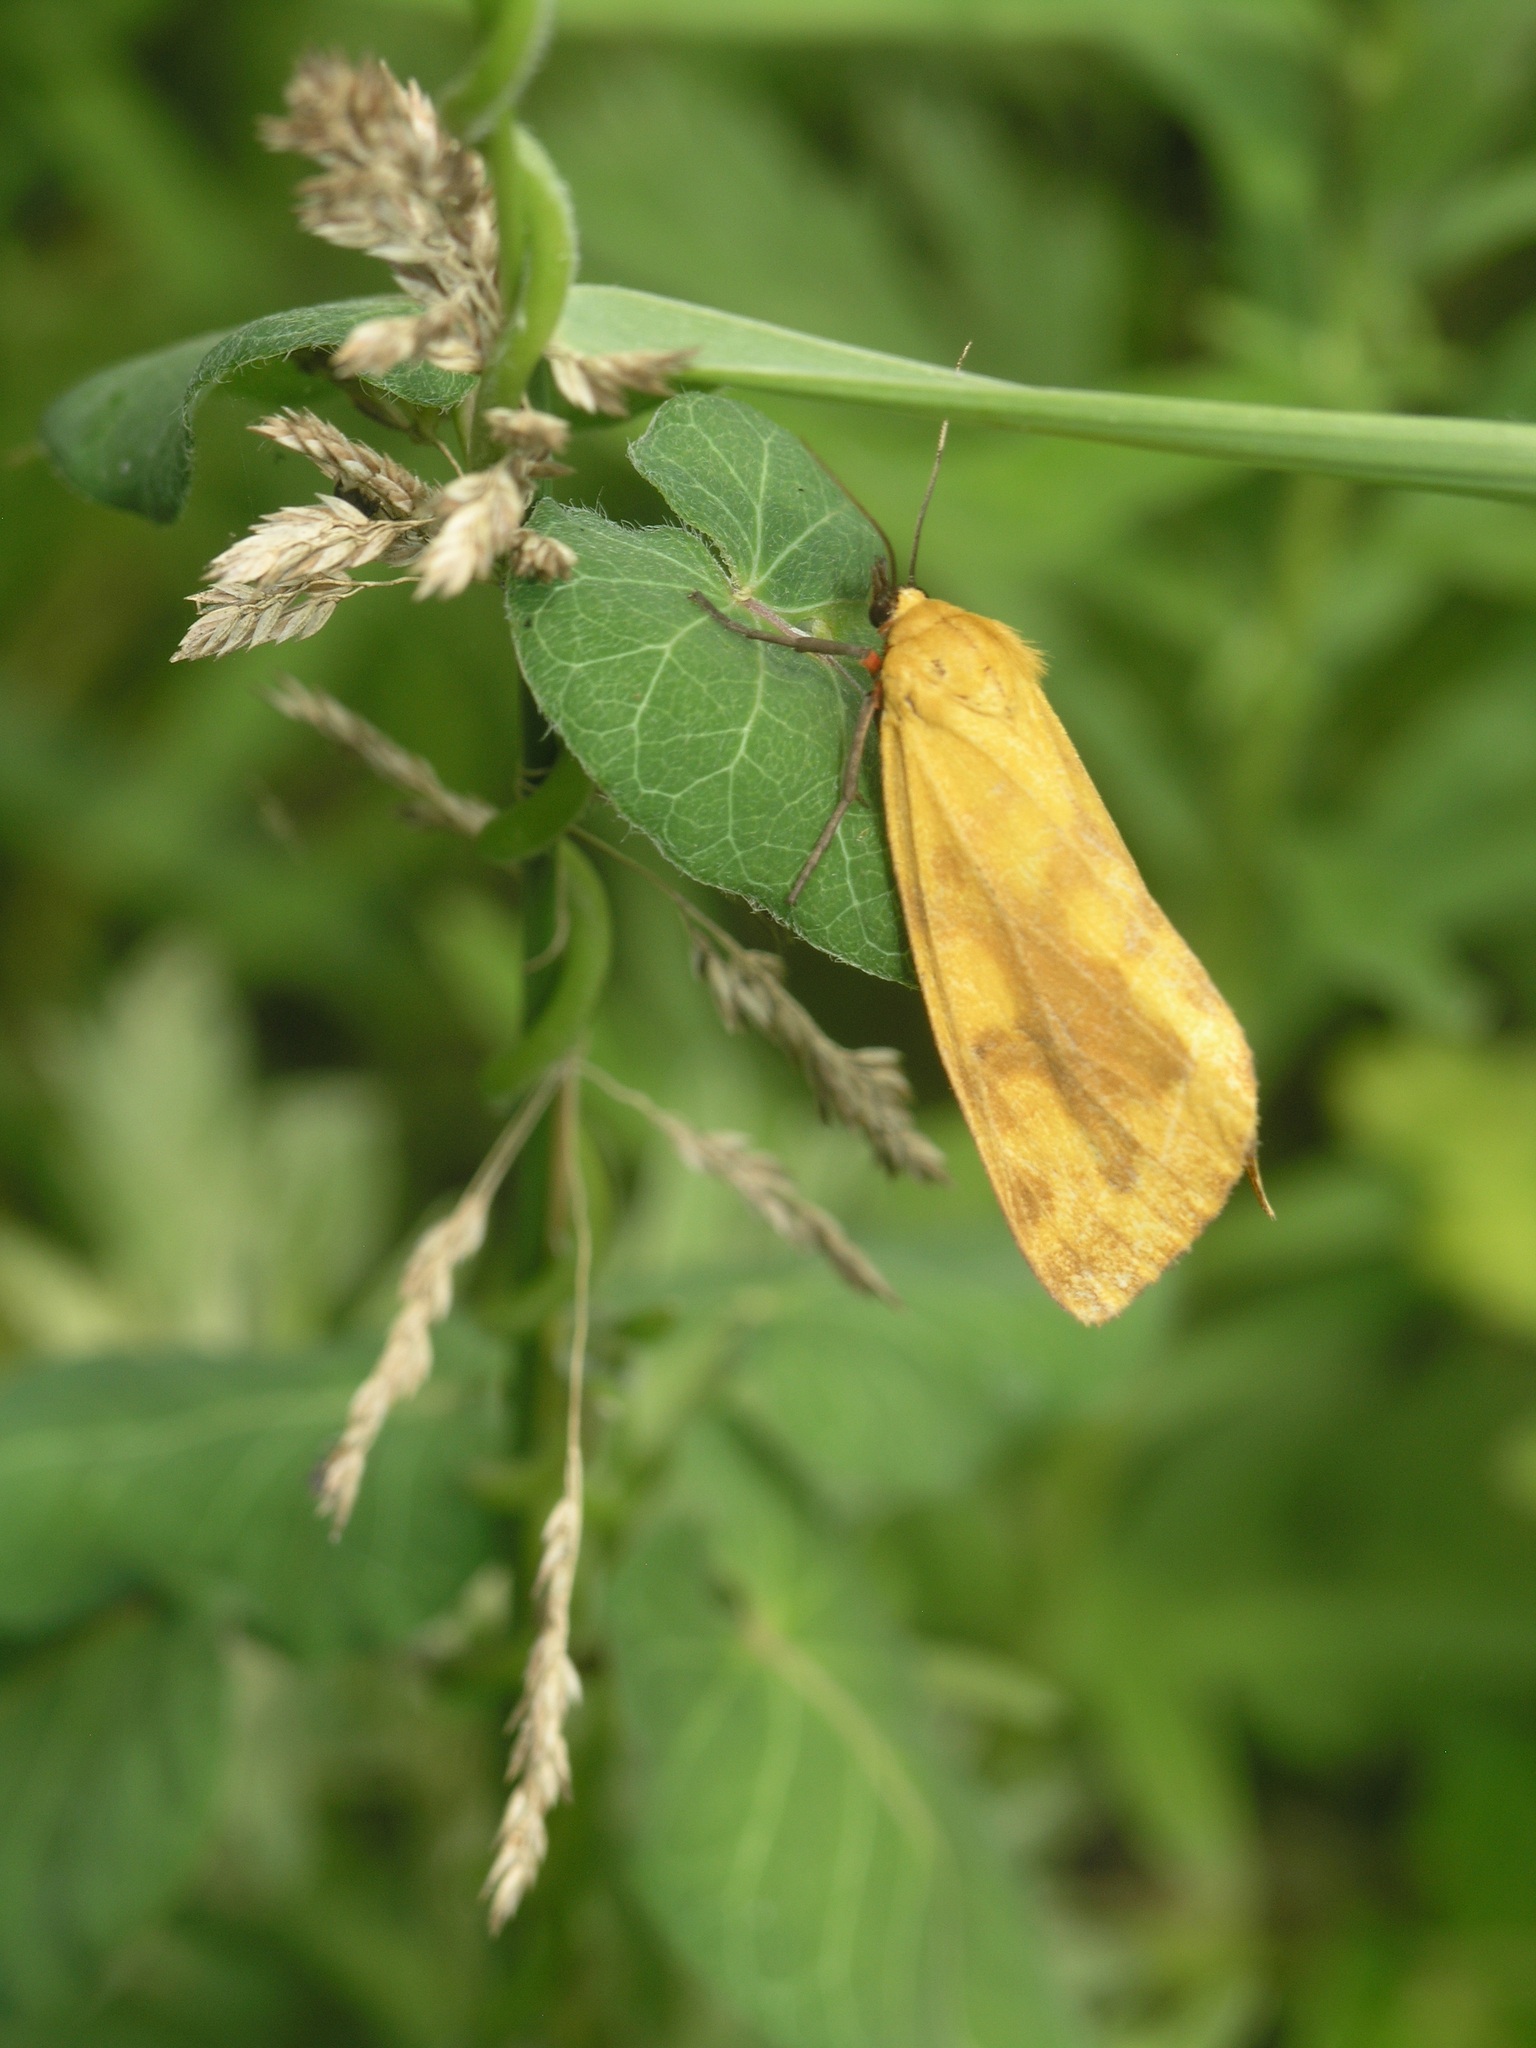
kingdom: Animalia
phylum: Arthropoda
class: Insecta
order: Lepidoptera
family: Erebidae
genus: Diacrisia
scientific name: Diacrisia amurensis
